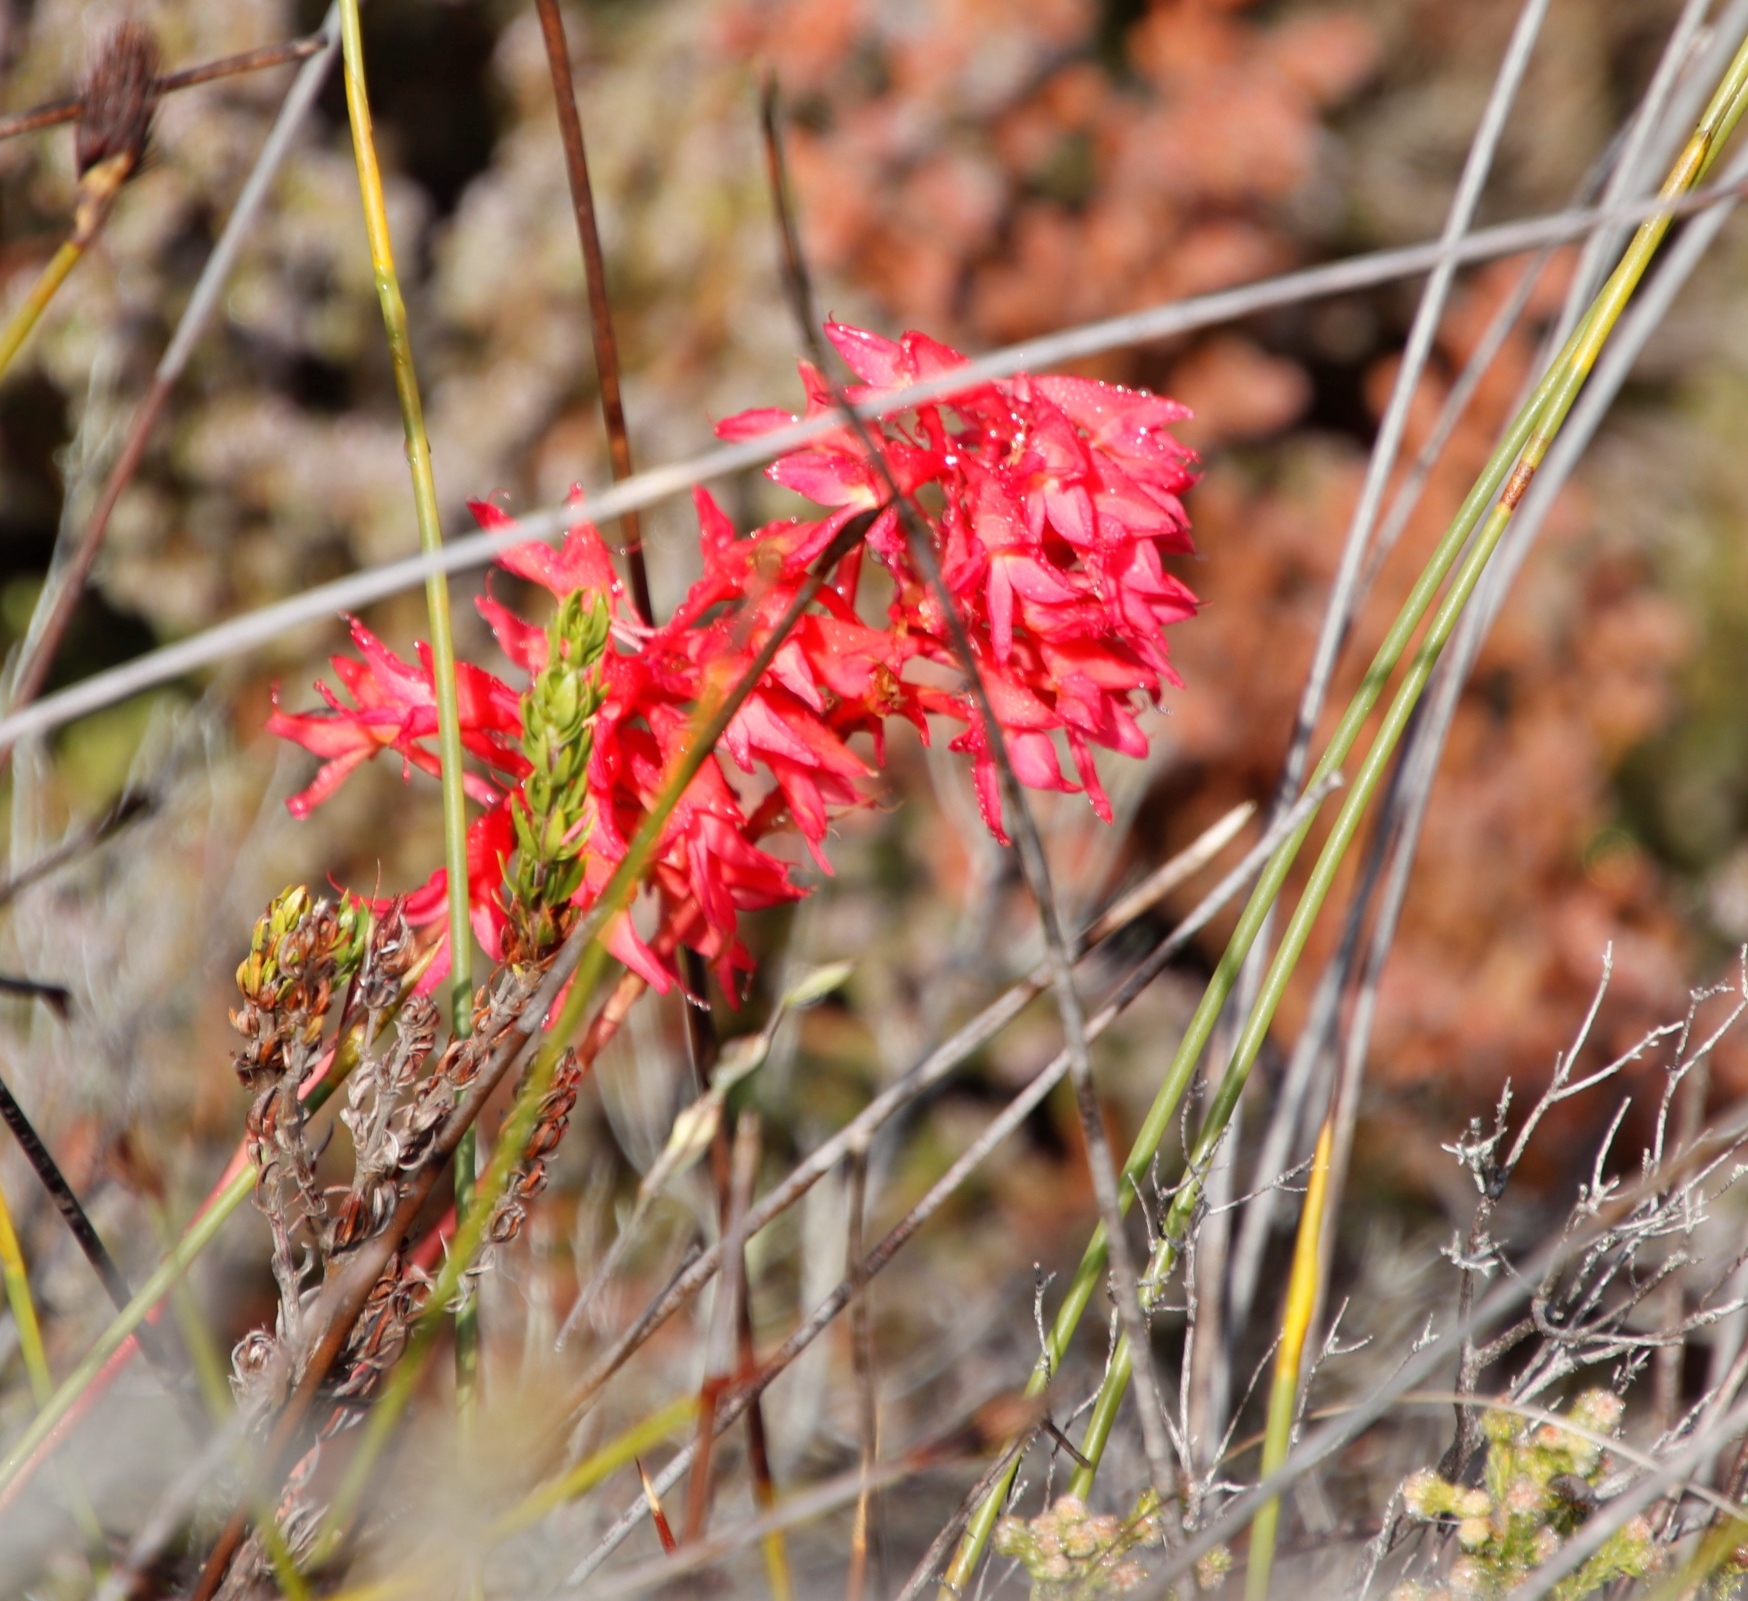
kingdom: Plantae
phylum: Tracheophyta
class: Liliopsida
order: Asparagales
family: Orchidaceae
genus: Disa
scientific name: Disa ferruginea
